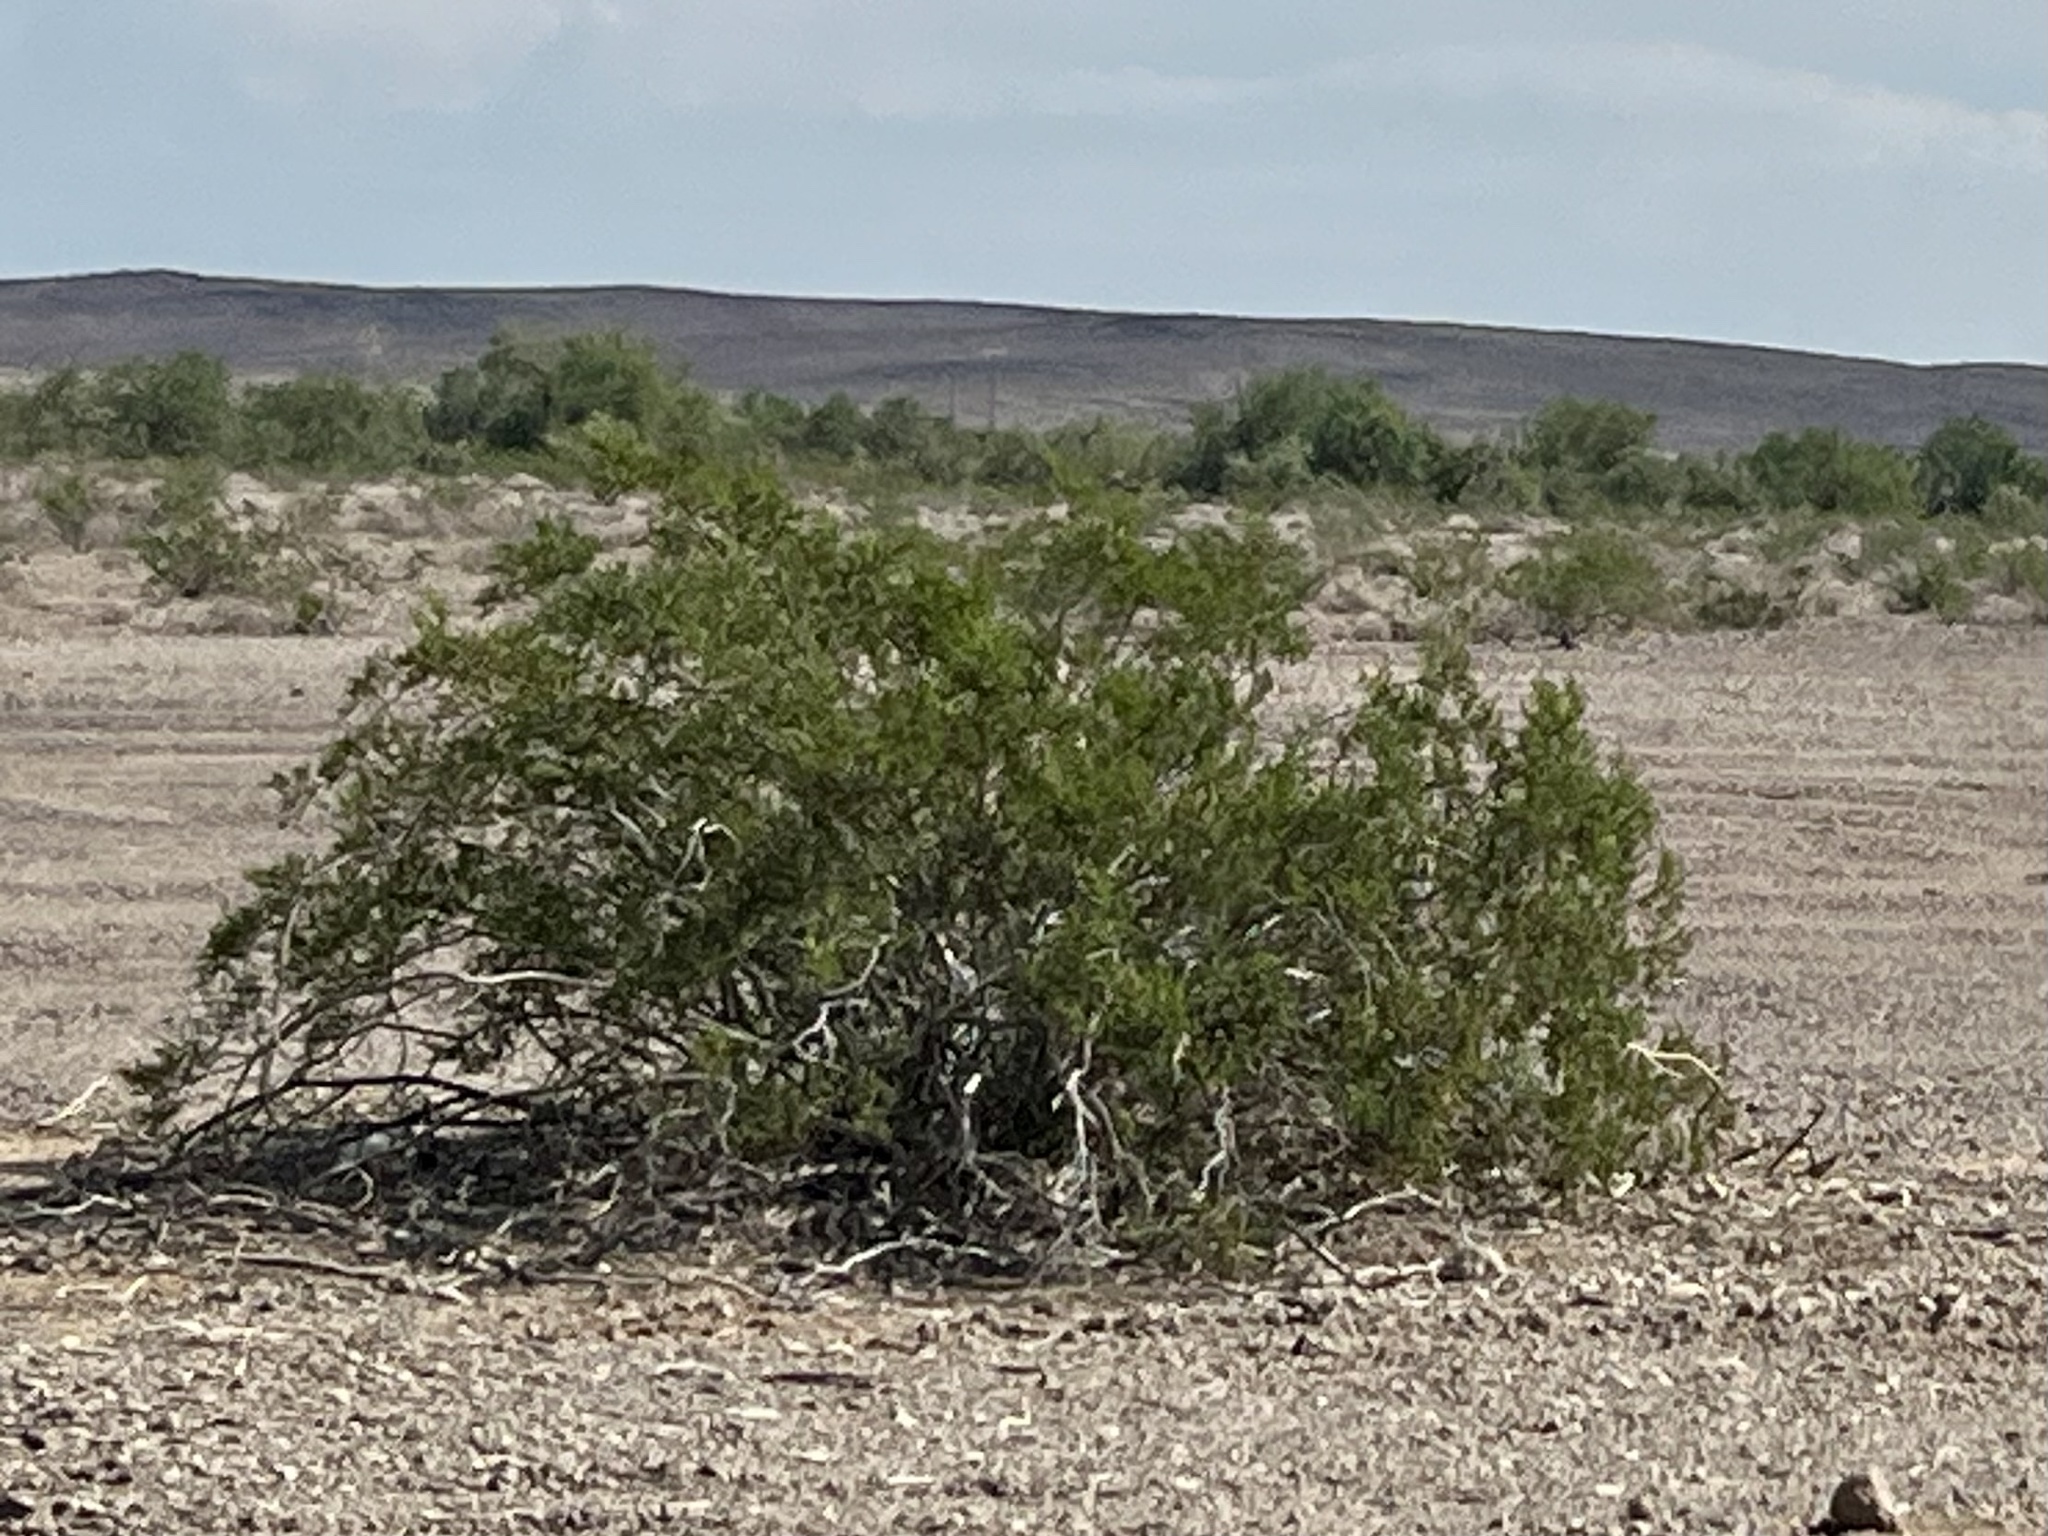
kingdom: Plantae
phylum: Tracheophyta
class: Magnoliopsida
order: Zygophyllales
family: Zygophyllaceae
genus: Larrea
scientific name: Larrea tridentata
